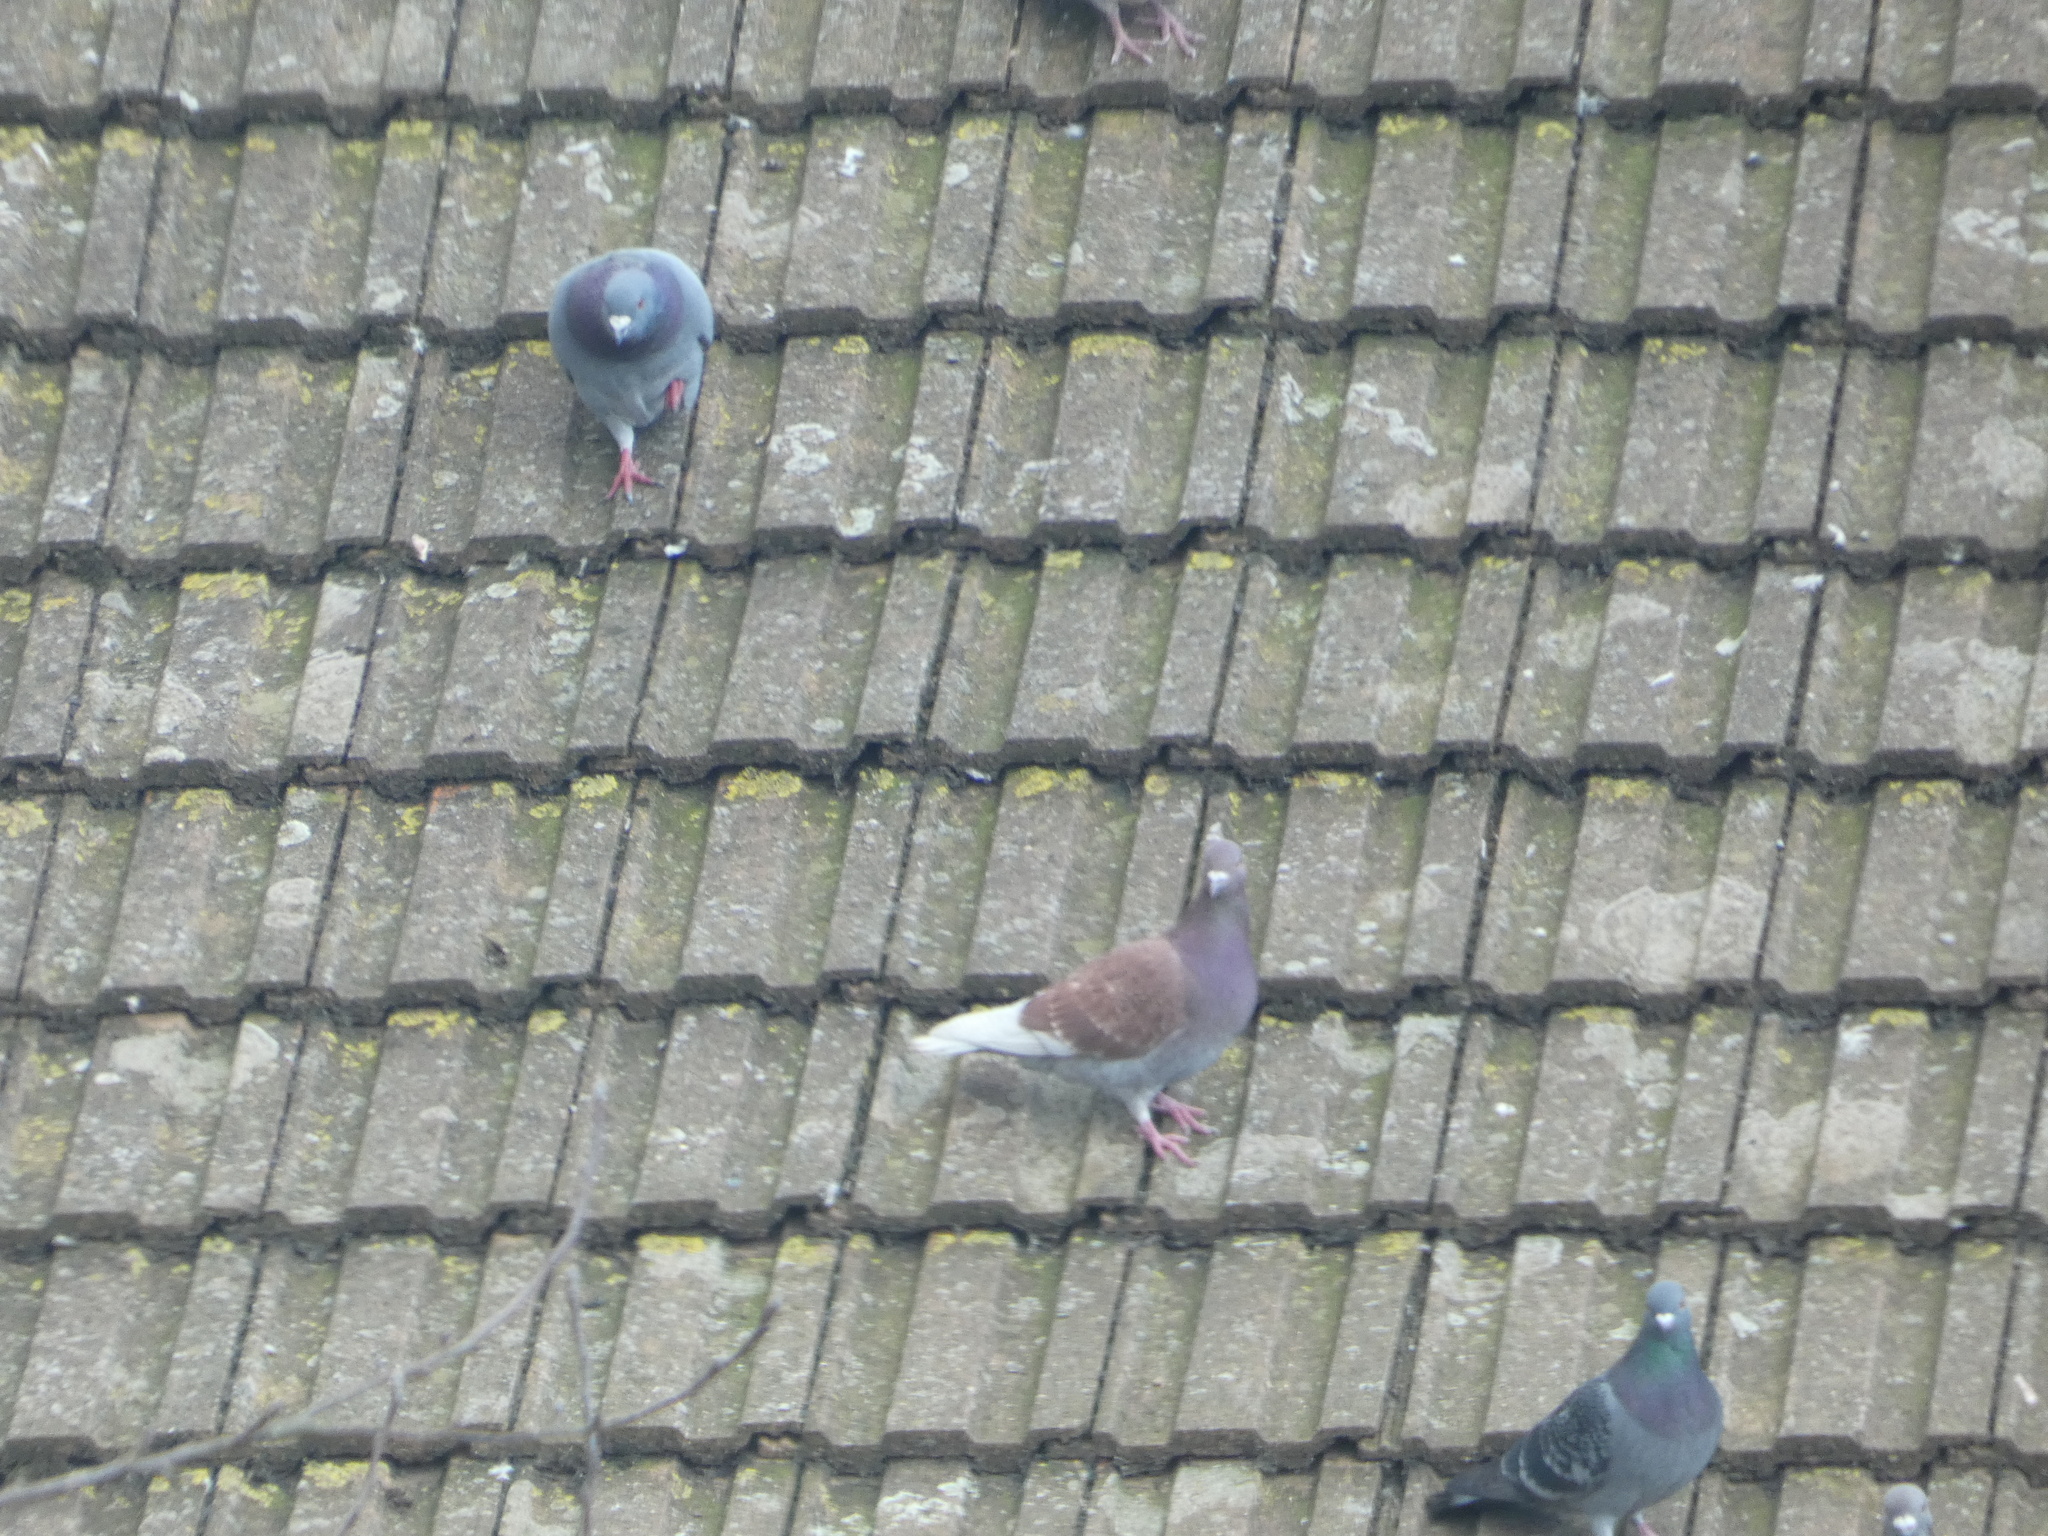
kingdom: Animalia
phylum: Chordata
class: Aves
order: Columbiformes
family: Columbidae
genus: Columba
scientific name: Columba livia
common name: Rock pigeon
